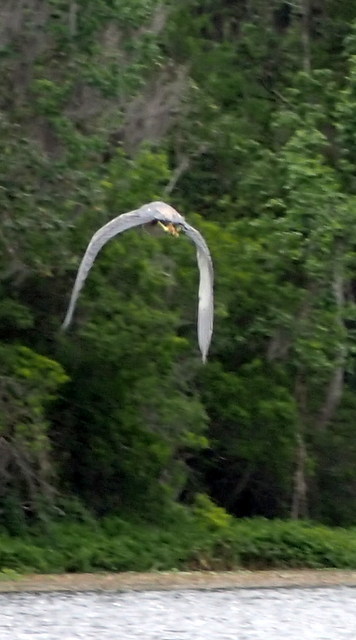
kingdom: Animalia
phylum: Chordata
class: Aves
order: Pelecaniformes
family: Ardeidae
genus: Egretta
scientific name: Egretta tricolor
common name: Tricolored heron
